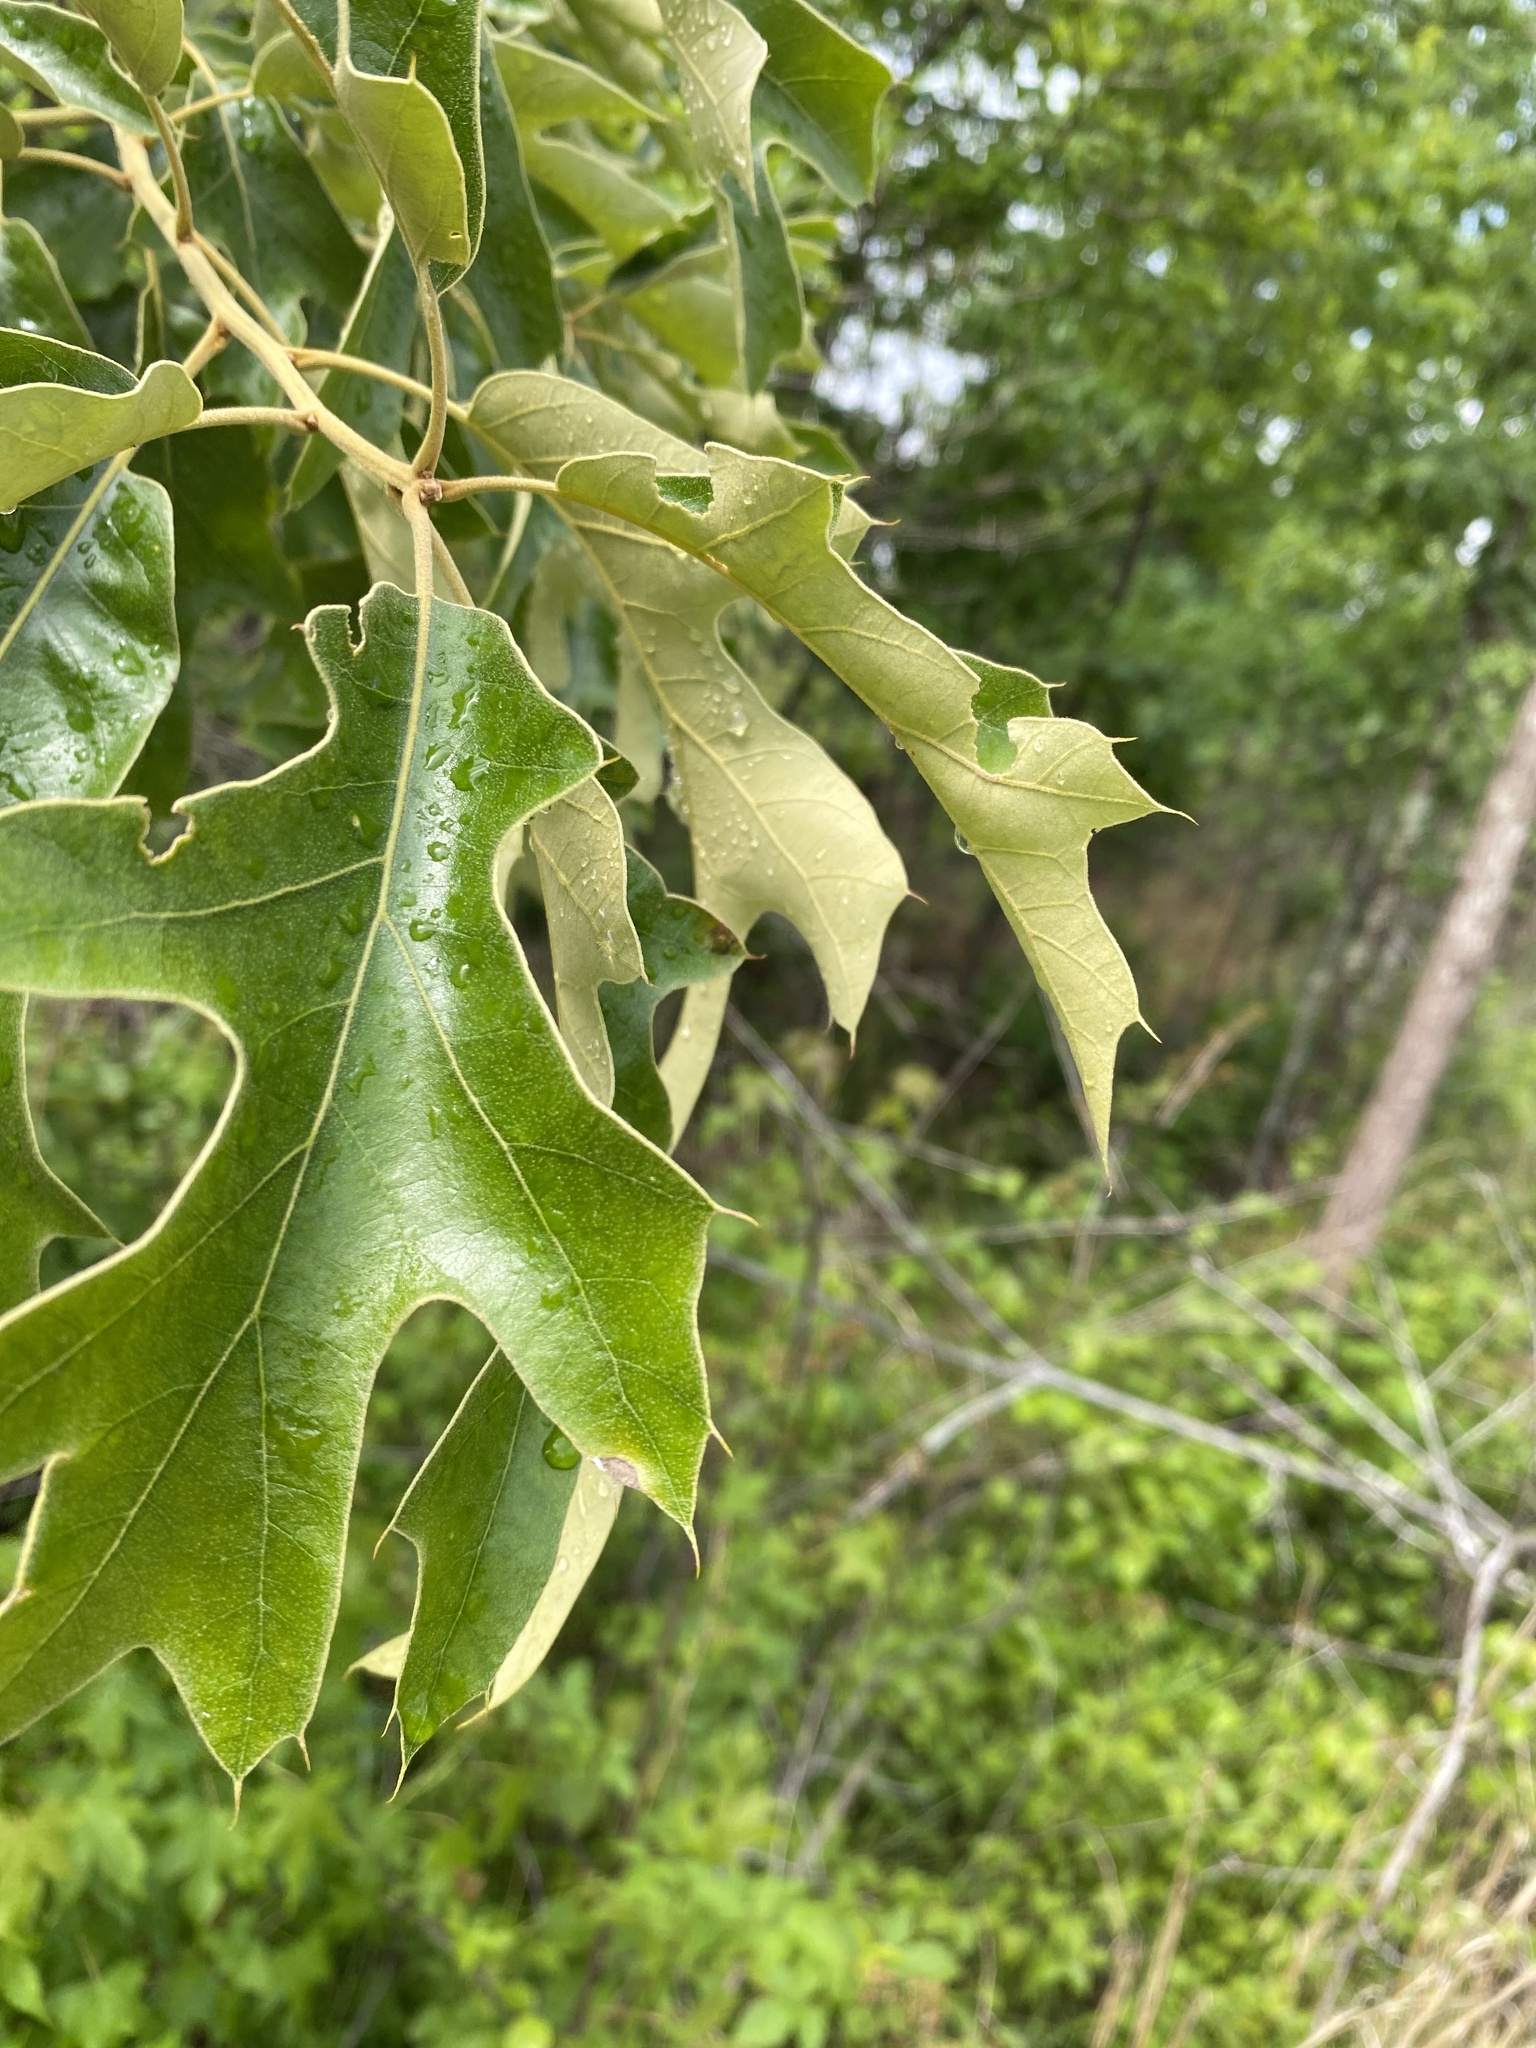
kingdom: Plantae
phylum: Tracheophyta
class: Magnoliopsida
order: Fagales
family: Fagaceae
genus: Quercus
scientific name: Quercus falcata
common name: Southern red oak
